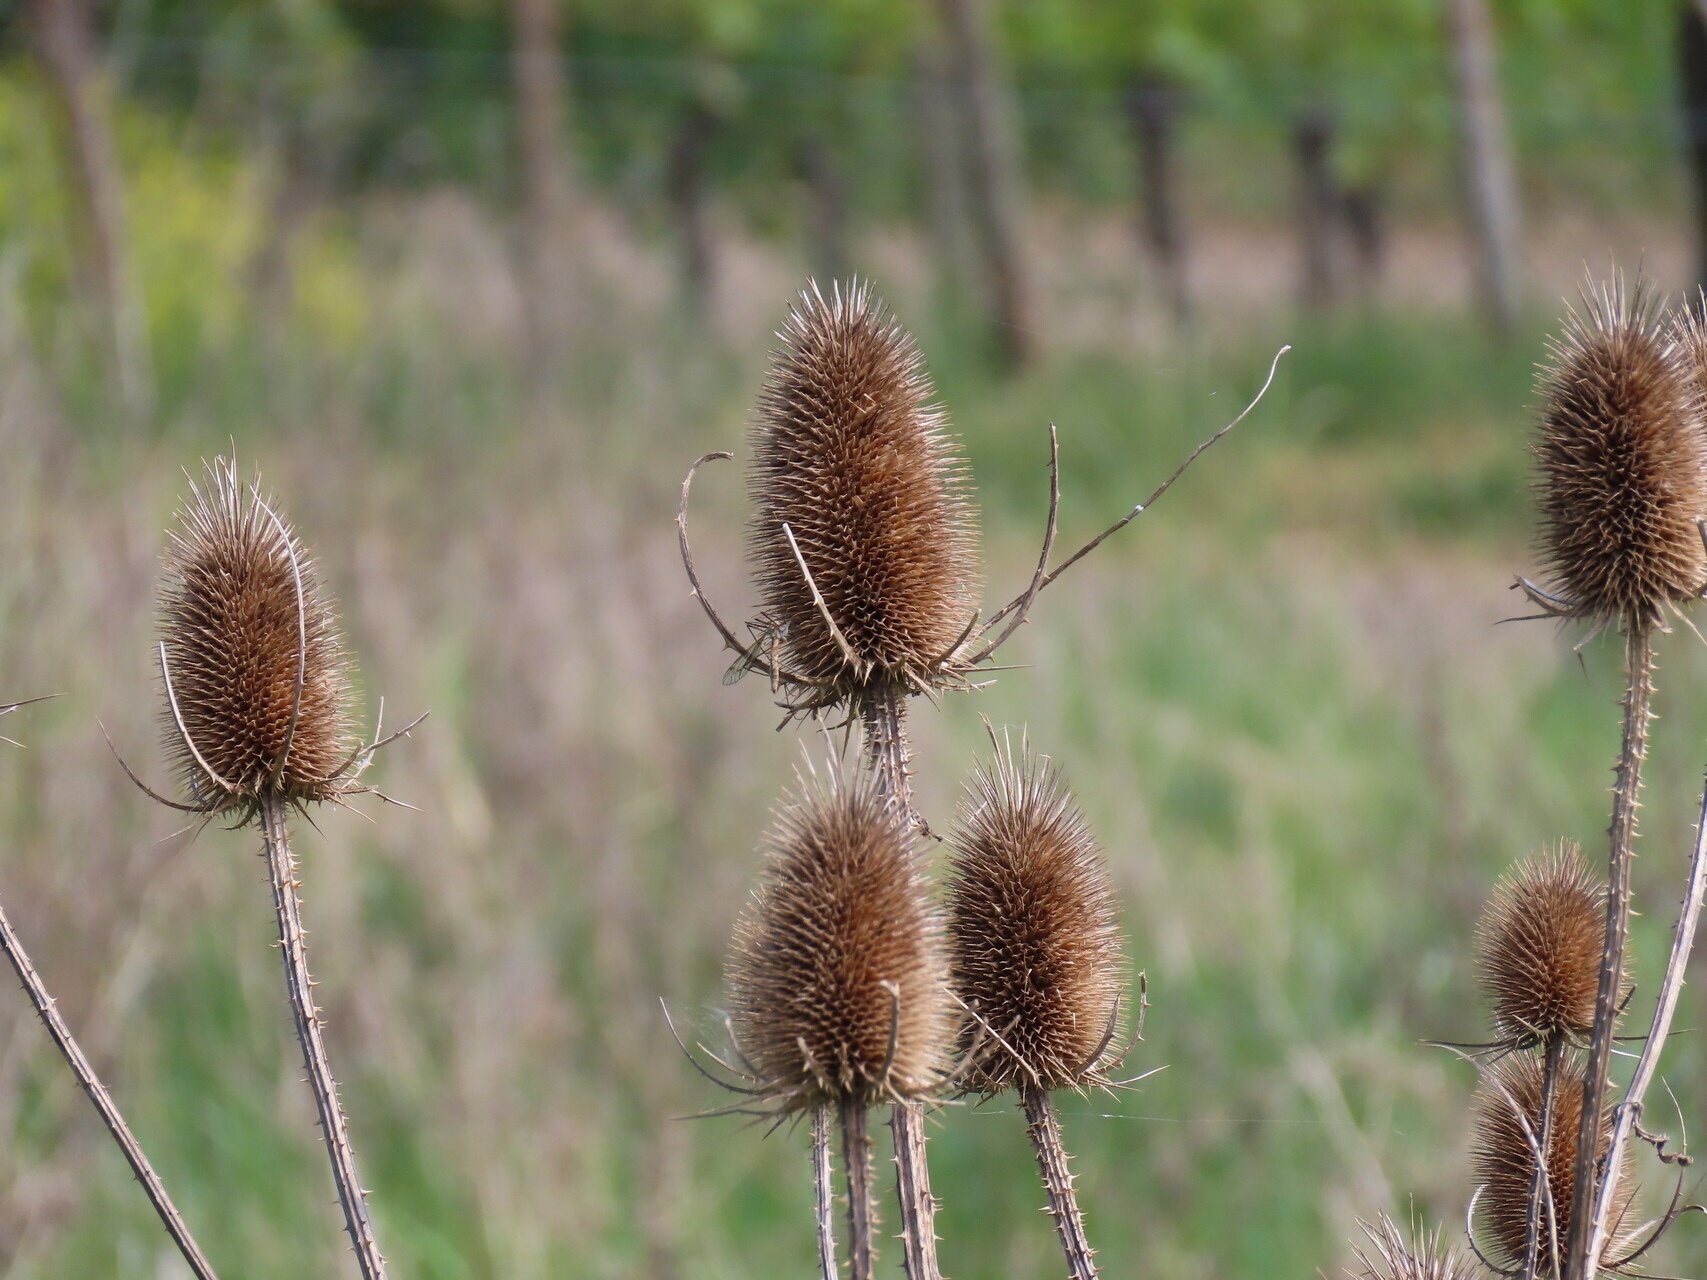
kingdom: Plantae
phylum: Tracheophyta
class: Magnoliopsida
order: Dipsacales
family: Caprifoliaceae
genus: Dipsacus
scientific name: Dipsacus fullonum
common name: Teasel
